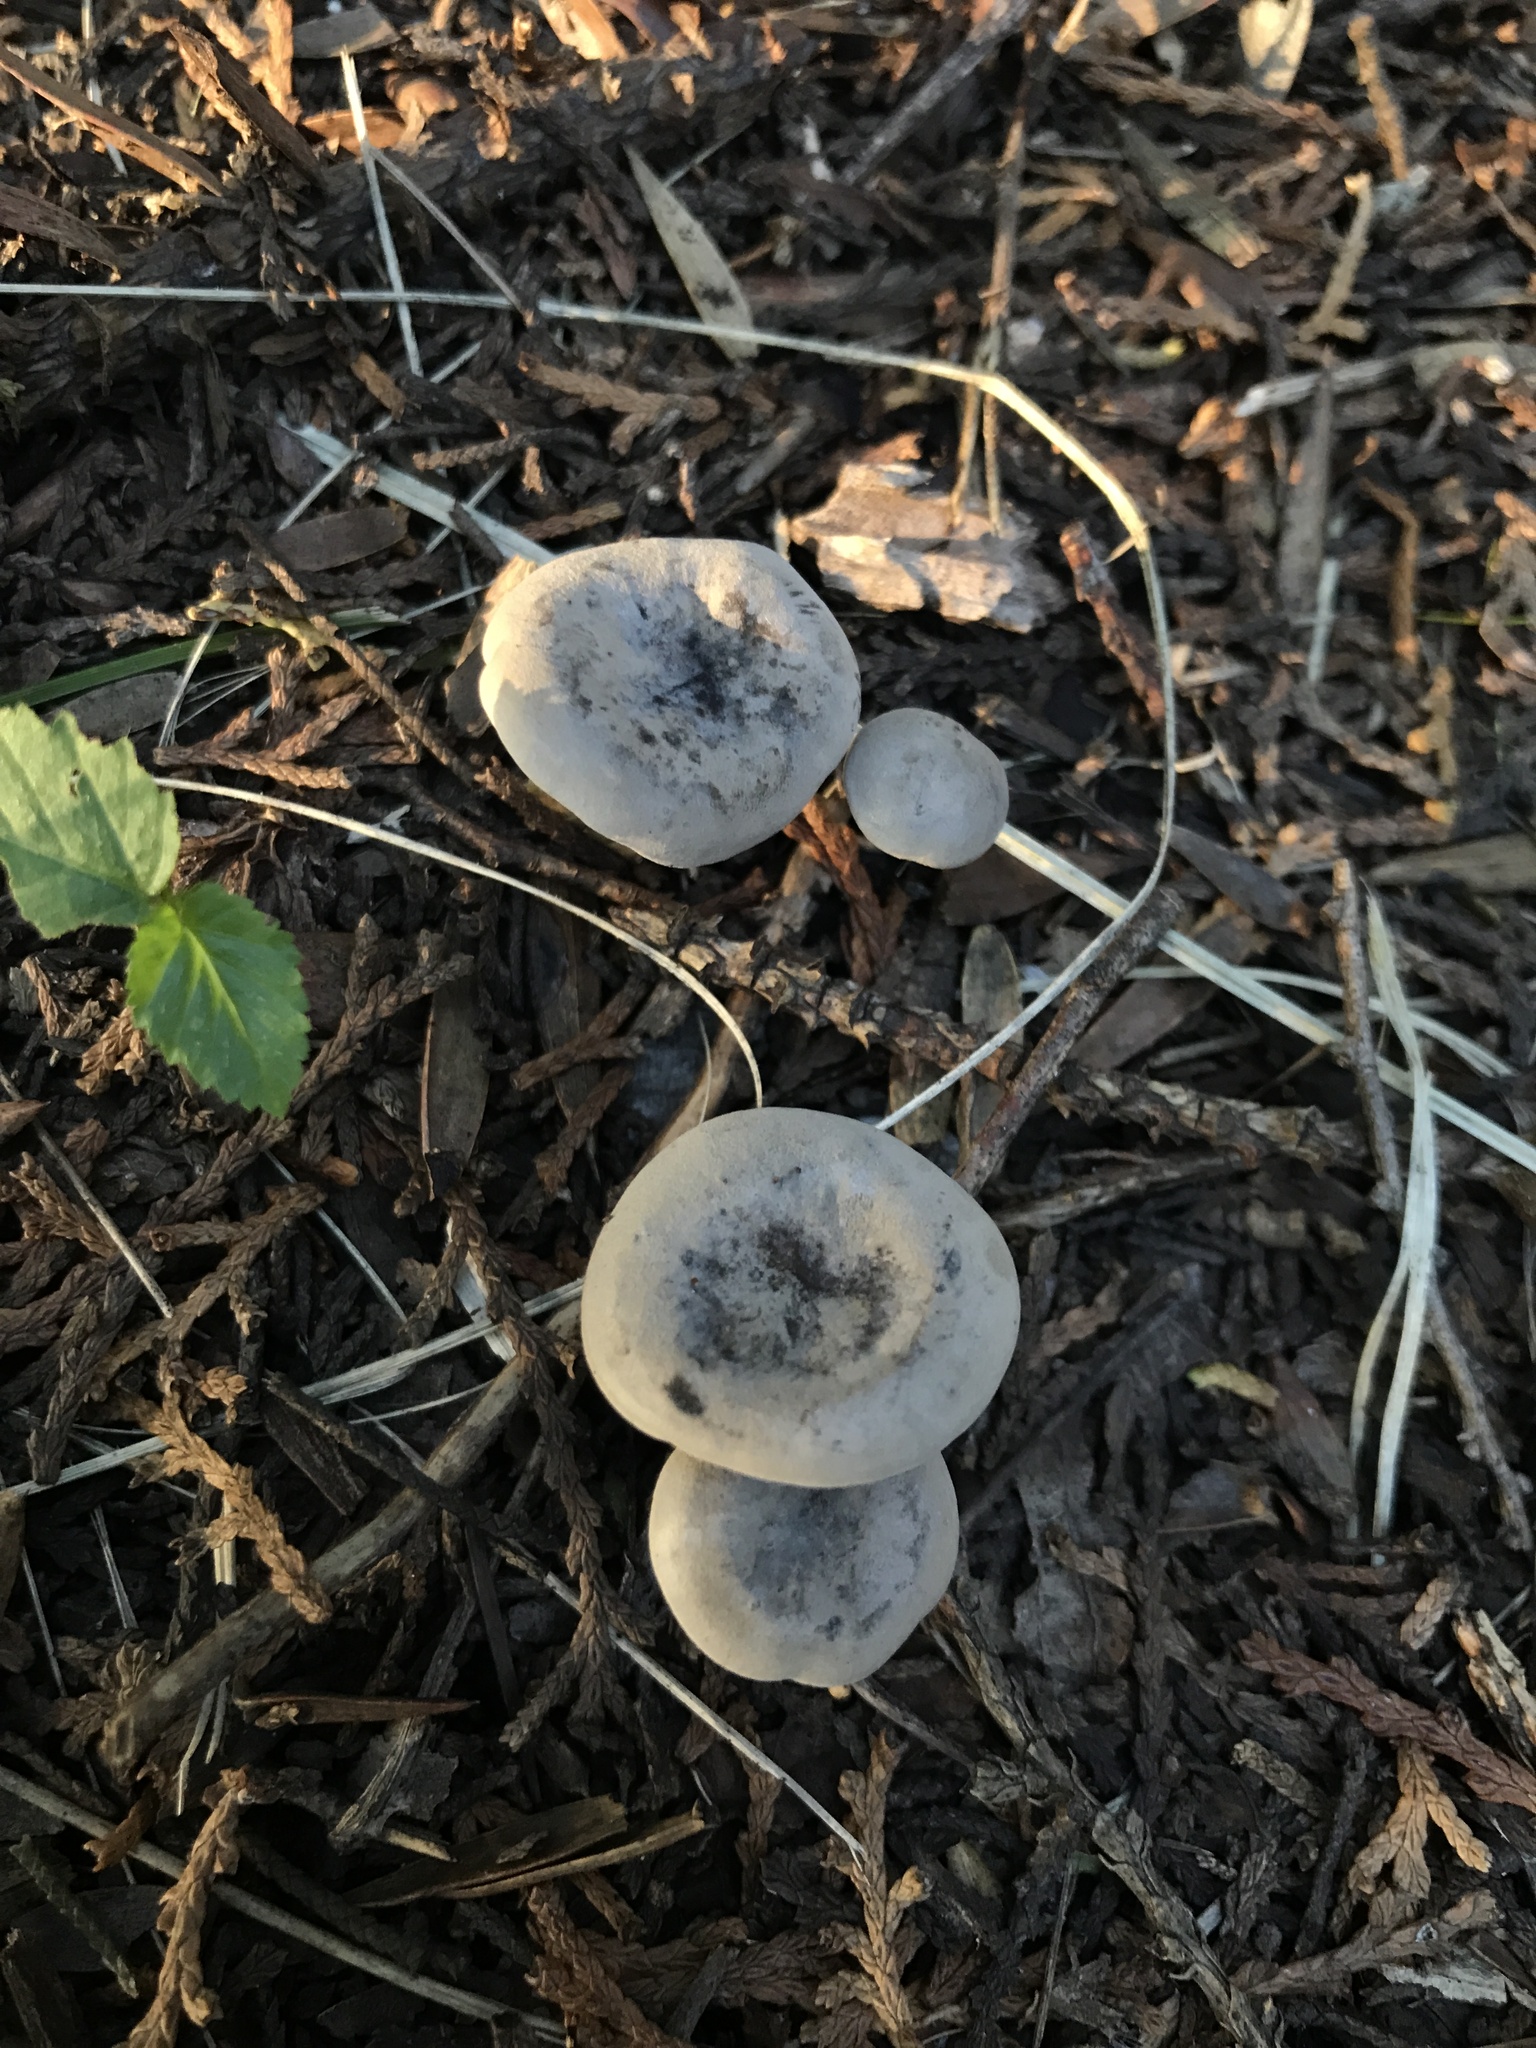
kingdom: Fungi
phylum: Basidiomycota
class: Agaricomycetes
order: Agaricales
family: Tricholomataceae
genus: Melanoleuca
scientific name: Melanoleuca melaleuca
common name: Bald cavalier
